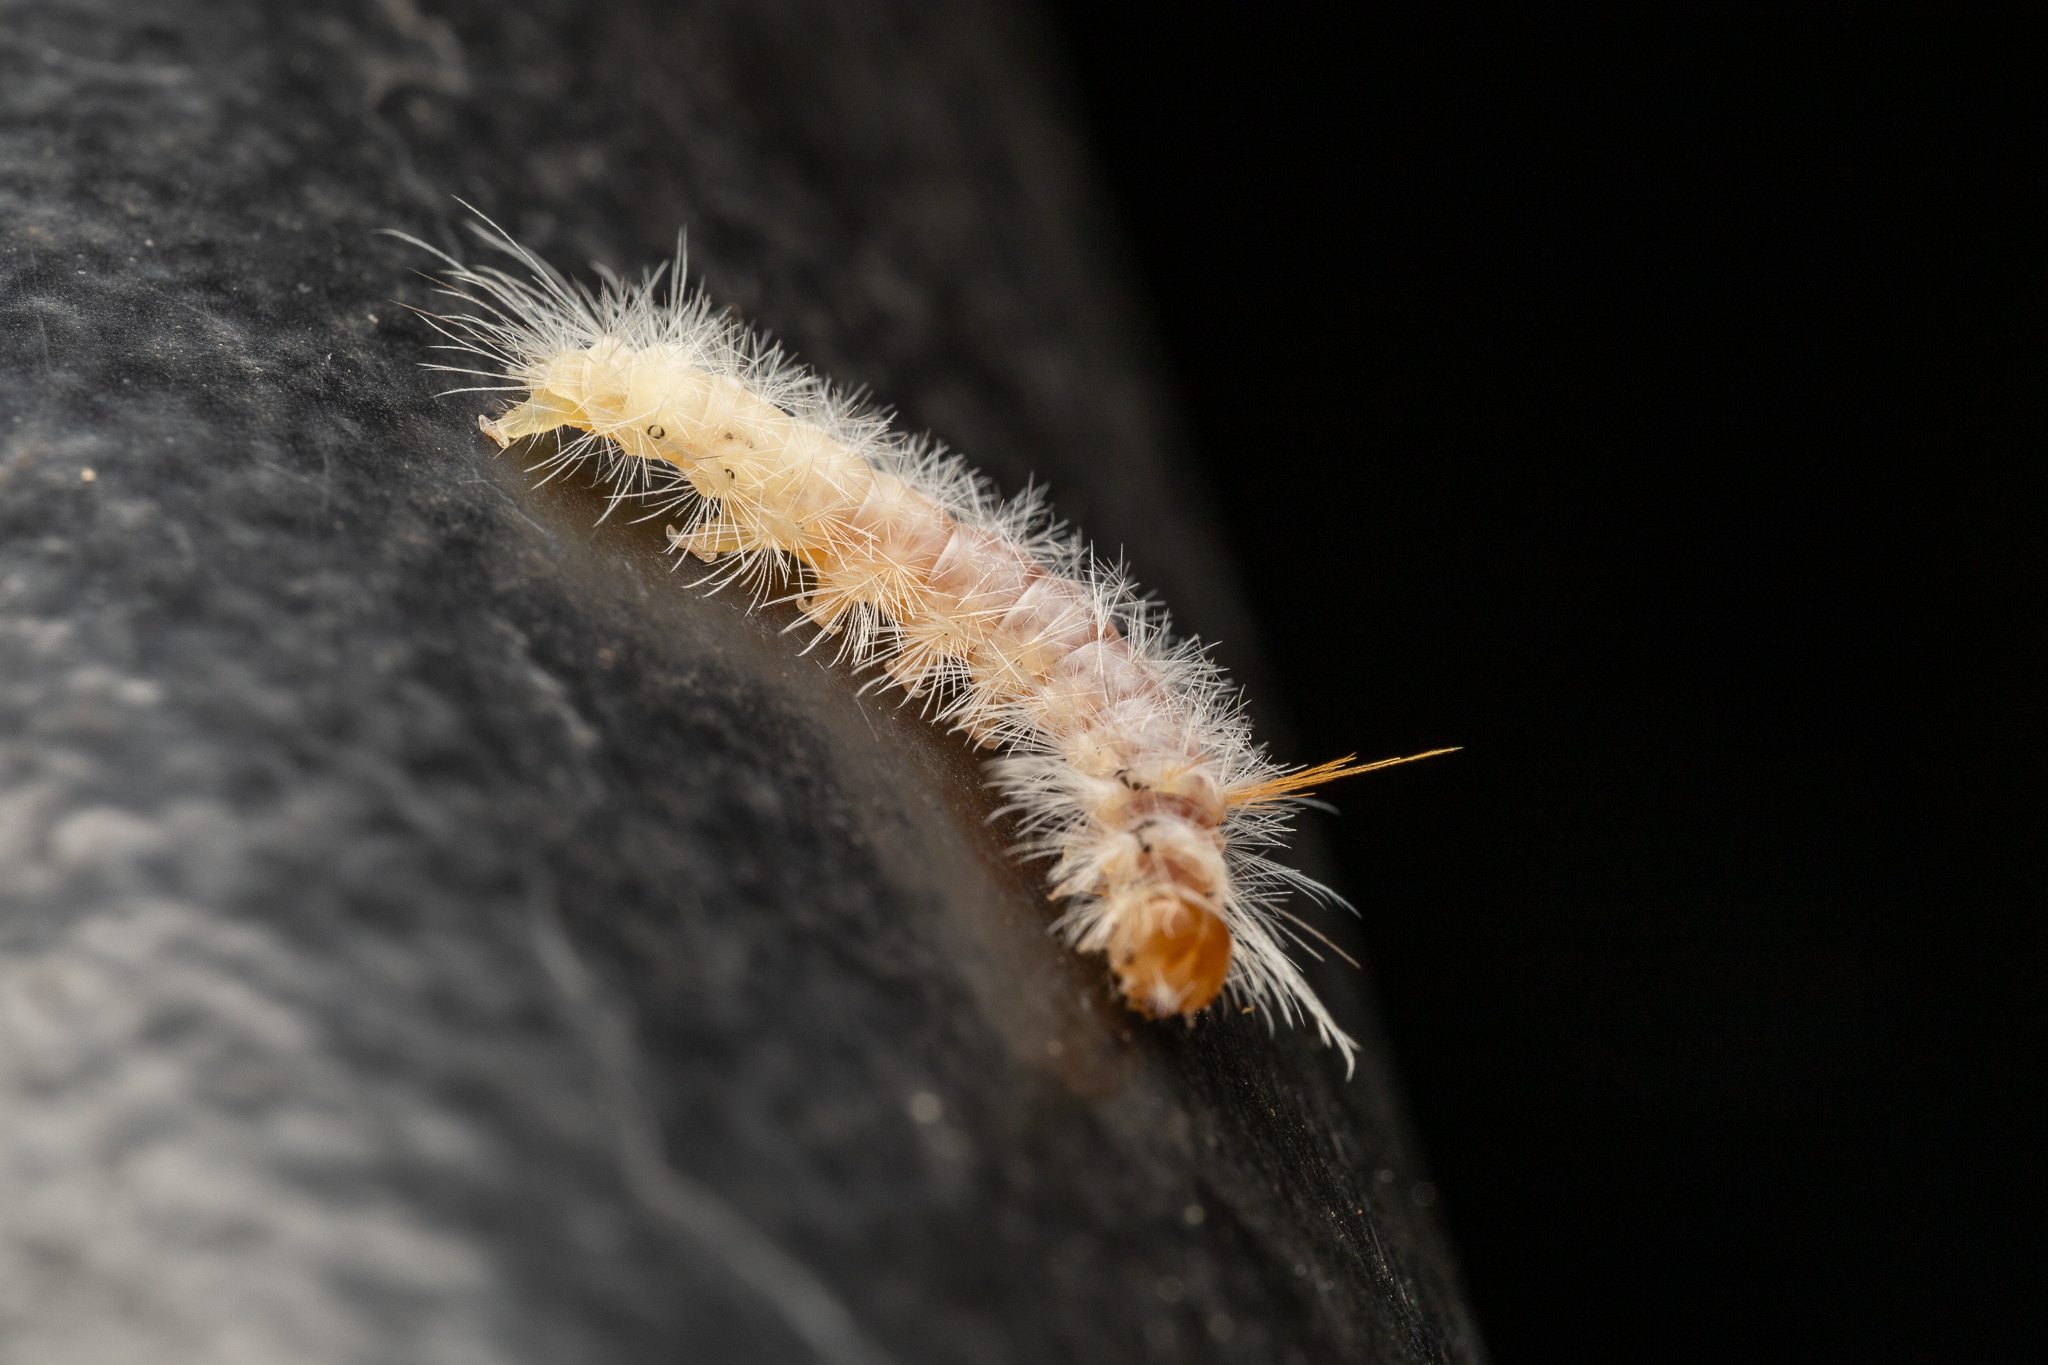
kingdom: Animalia
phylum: Arthropoda
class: Insecta
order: Lepidoptera
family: Erebidae
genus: Halysidota
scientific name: Halysidota harrisii
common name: Sycamore tussock moth
